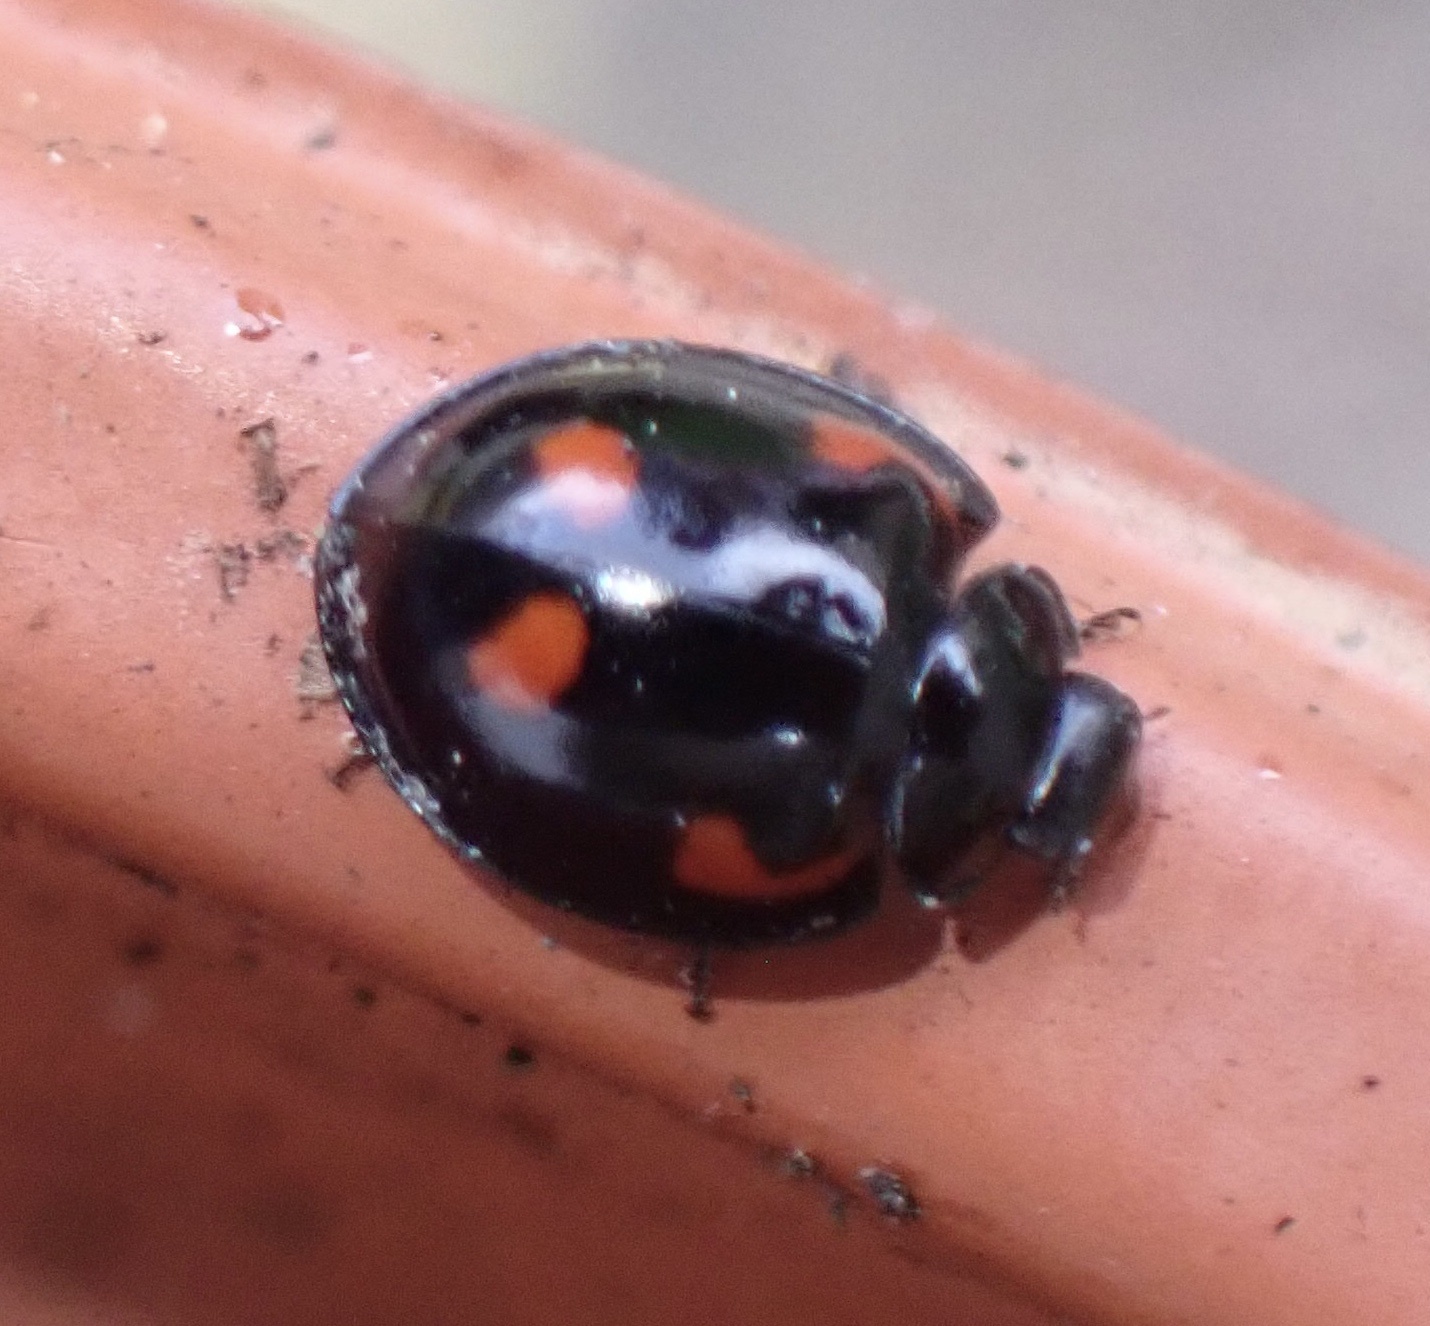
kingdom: Animalia
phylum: Arthropoda
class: Insecta
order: Coleoptera
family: Coccinellidae
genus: Brumus
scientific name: Brumus quadripustulatus
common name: Ladybird beetle
